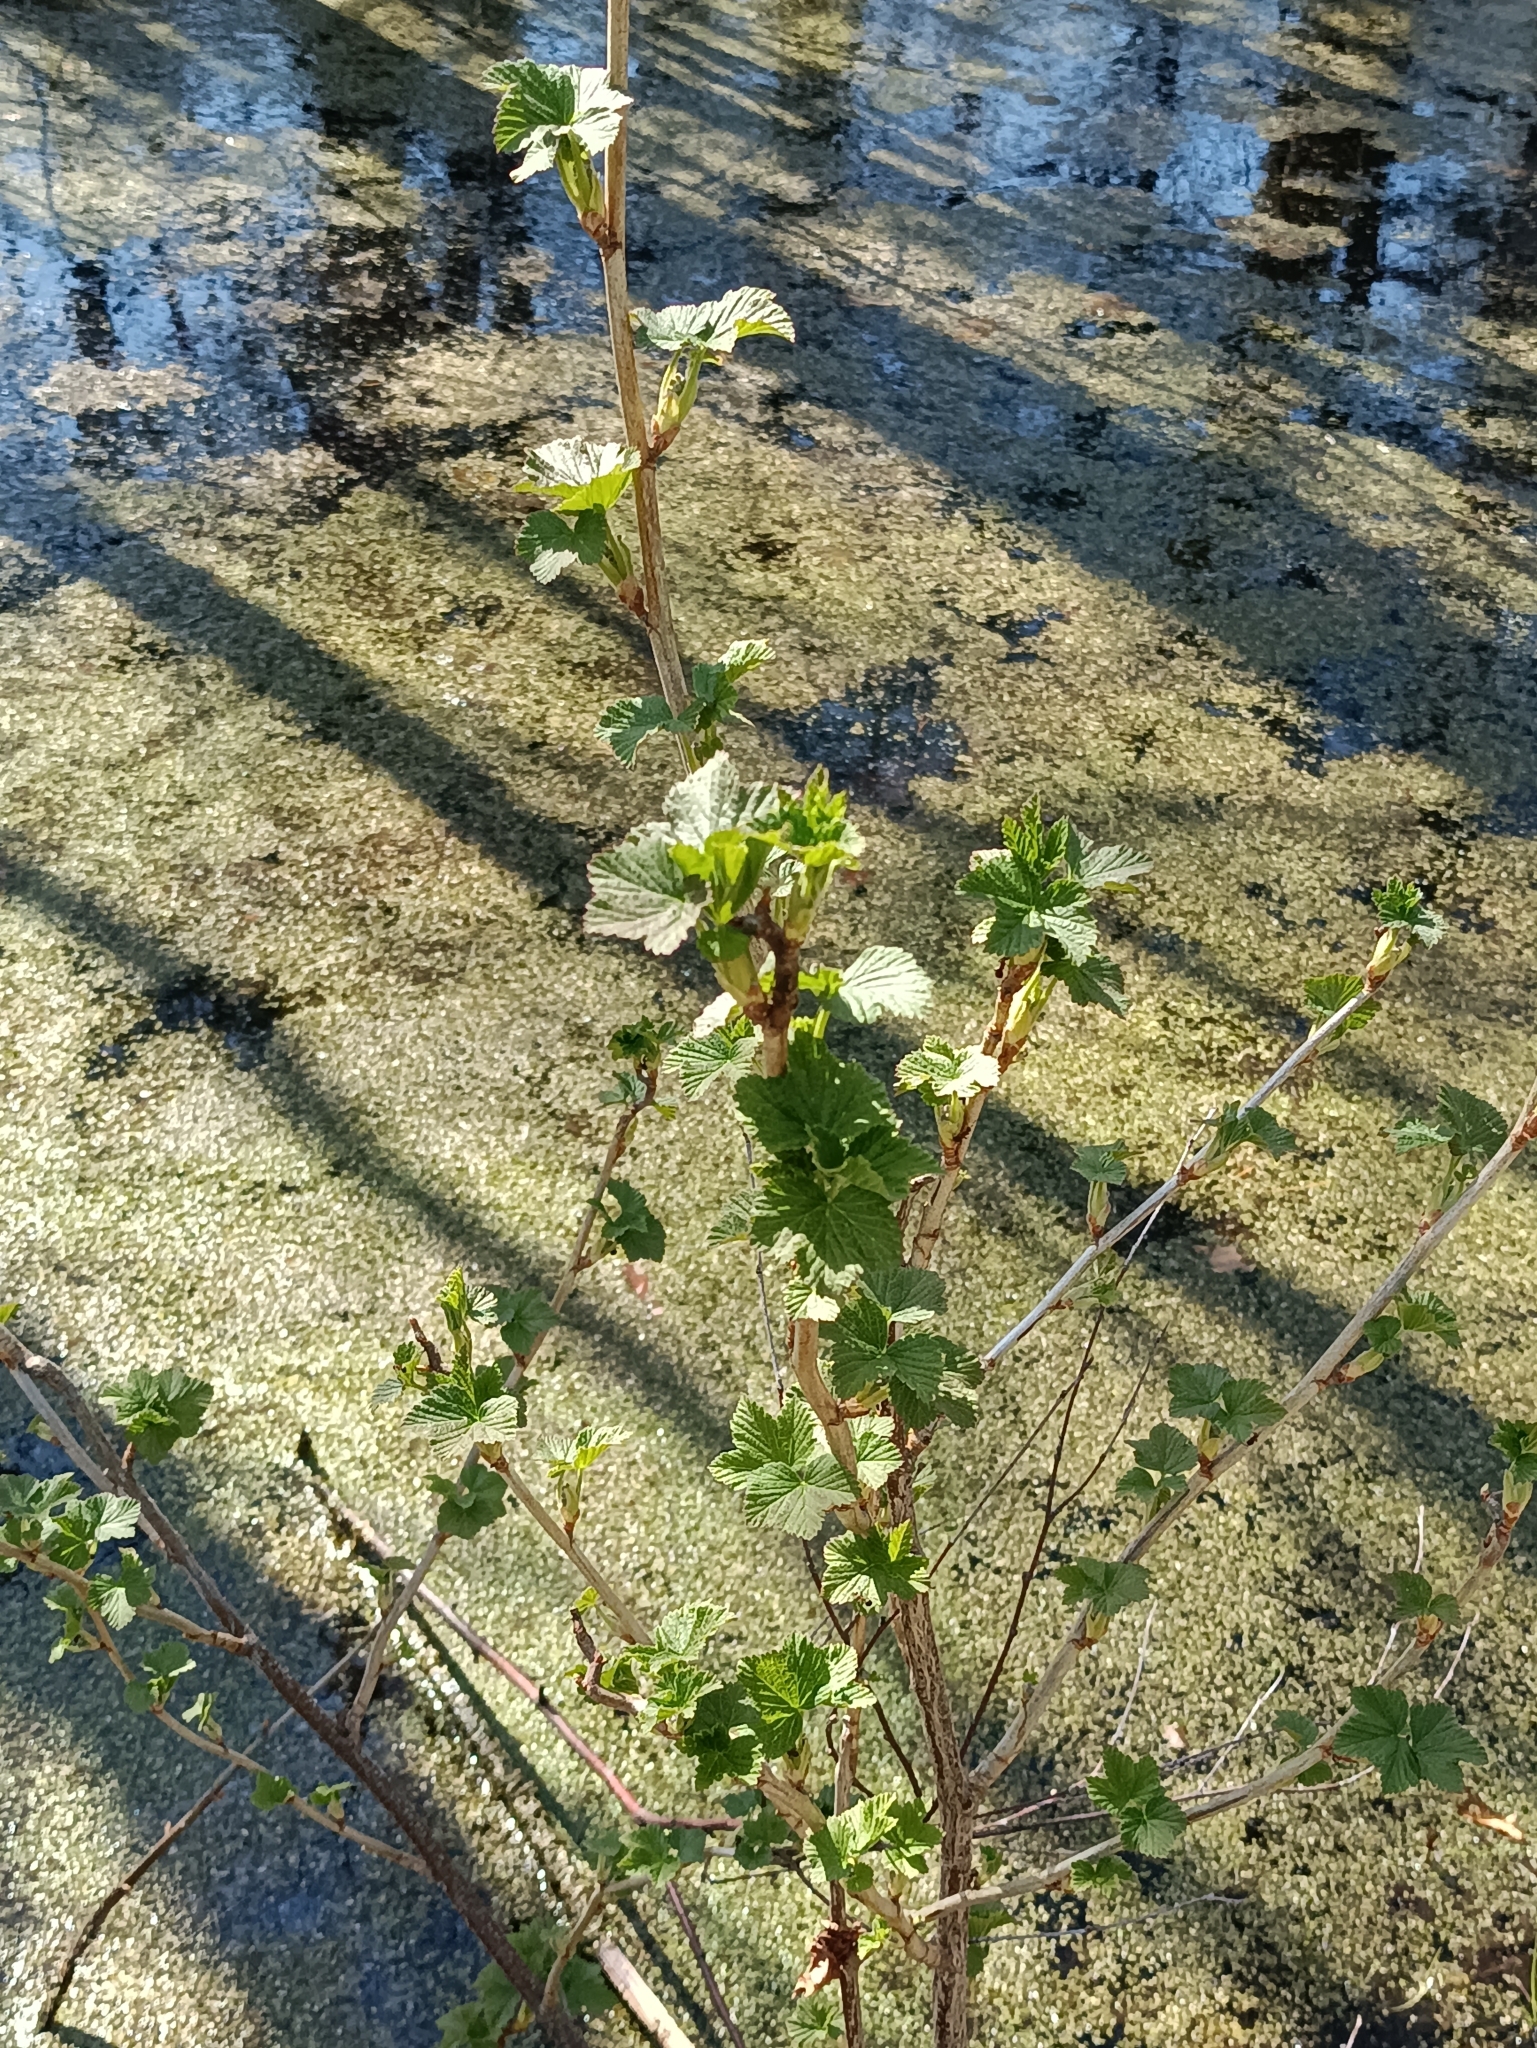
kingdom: Plantae
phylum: Tracheophyta
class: Magnoliopsida
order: Saxifragales
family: Grossulariaceae
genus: Ribes
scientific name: Ribes nigrum
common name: Black currant
